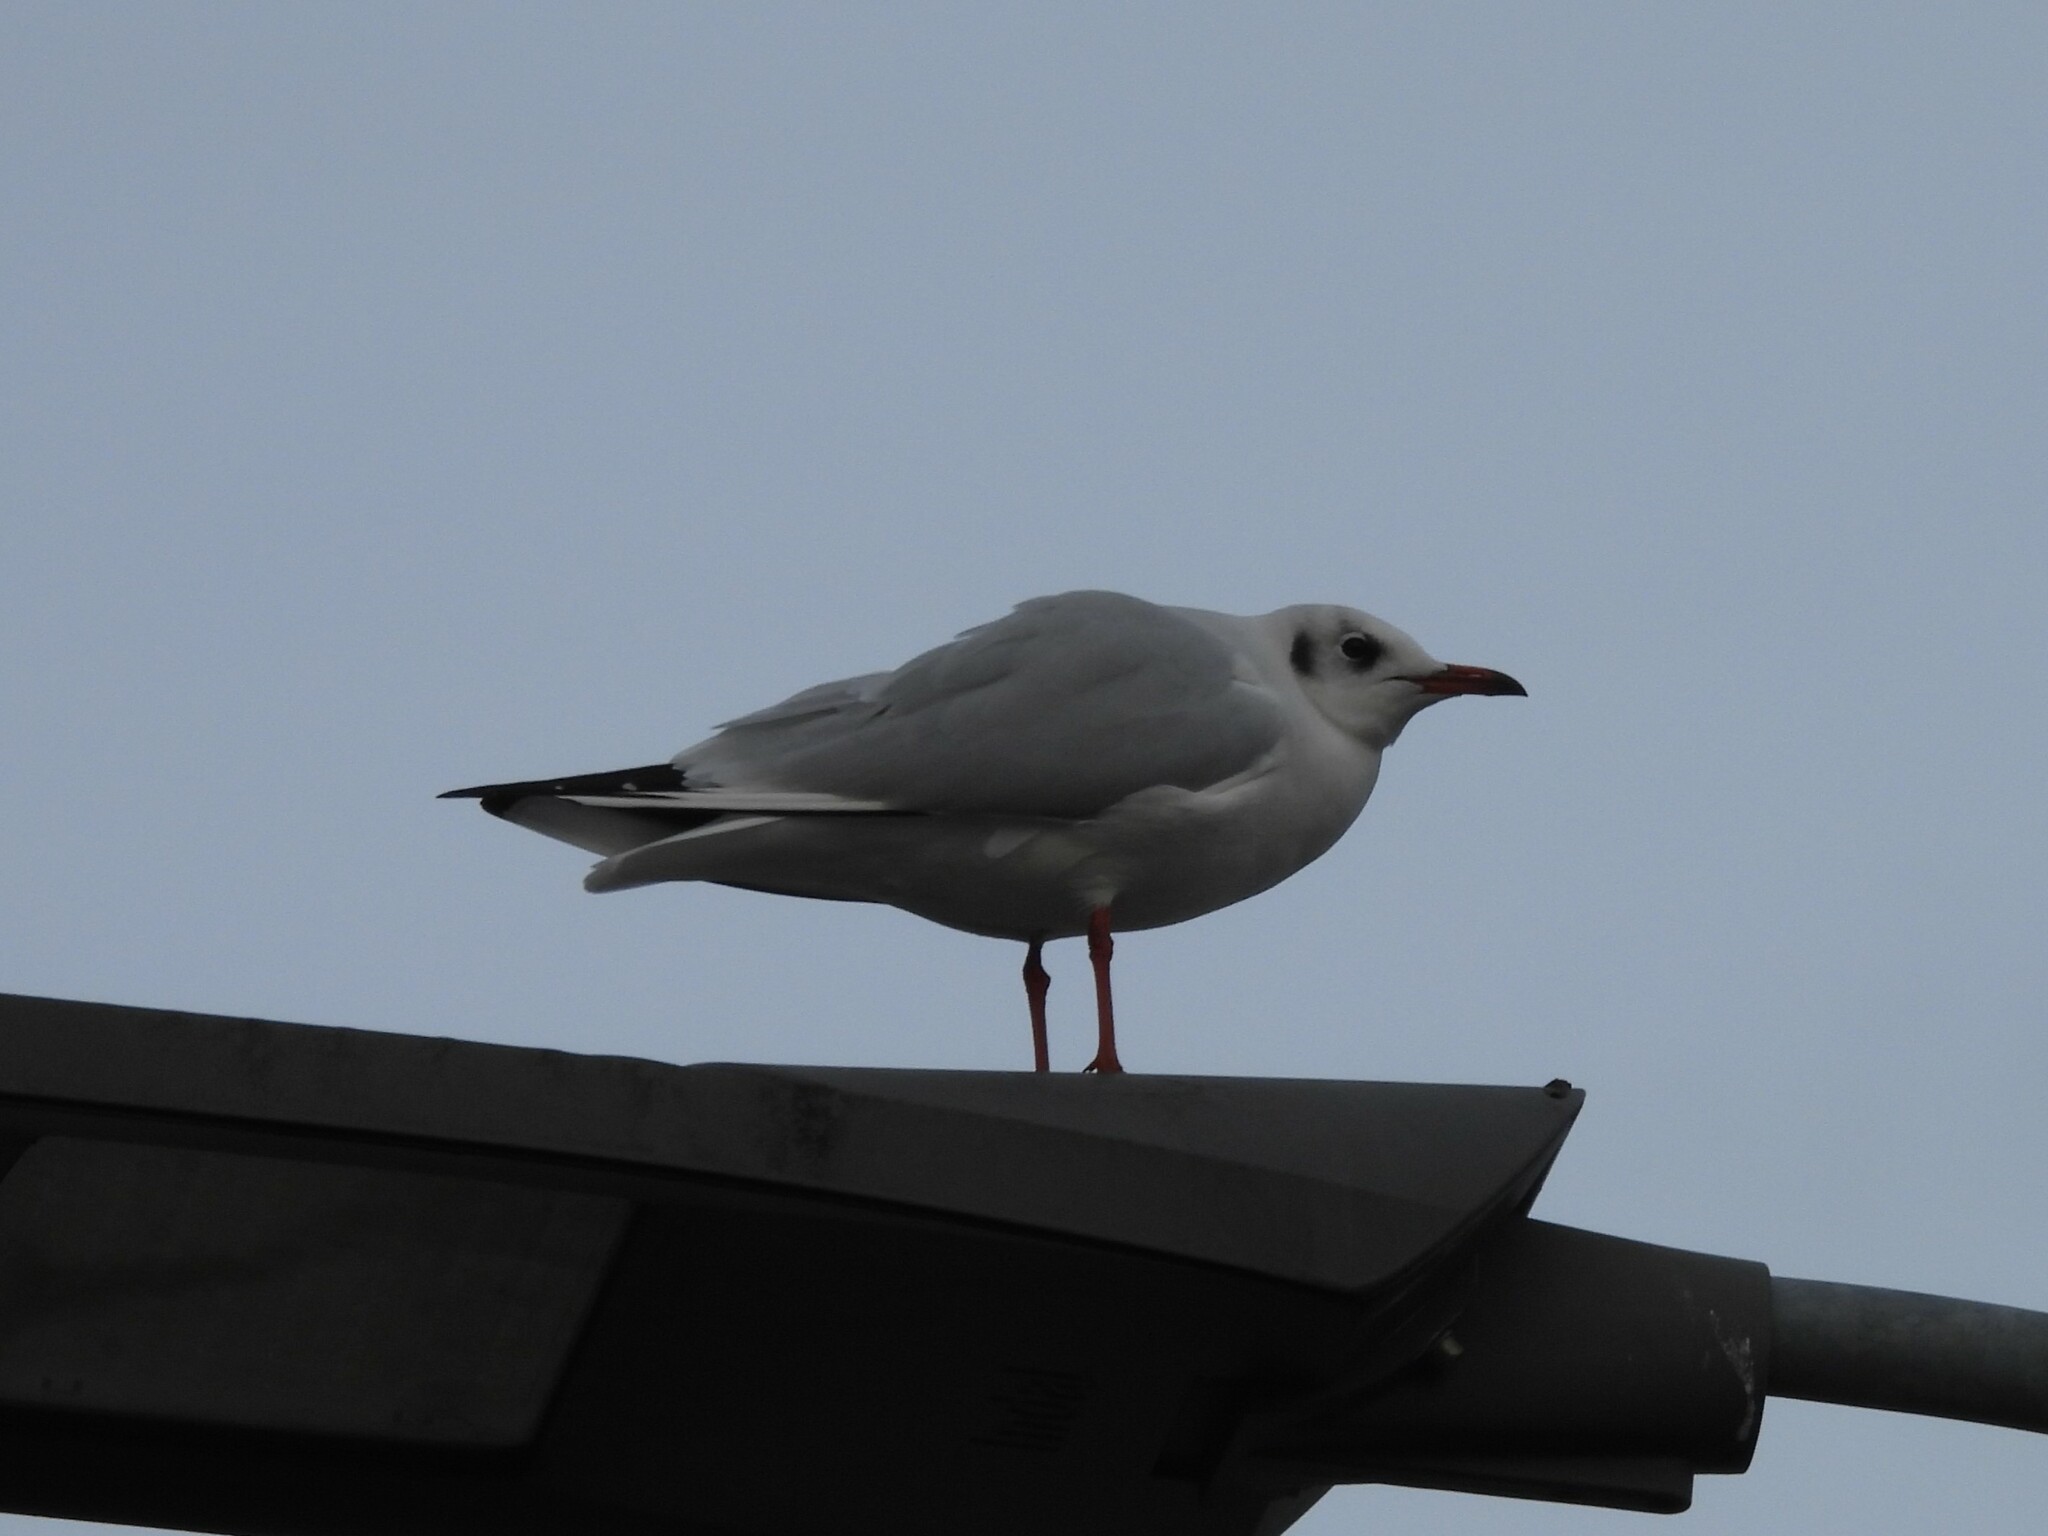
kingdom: Animalia
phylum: Chordata
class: Aves
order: Charadriiformes
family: Laridae
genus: Chroicocephalus
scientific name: Chroicocephalus ridibundus
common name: Black-headed gull
